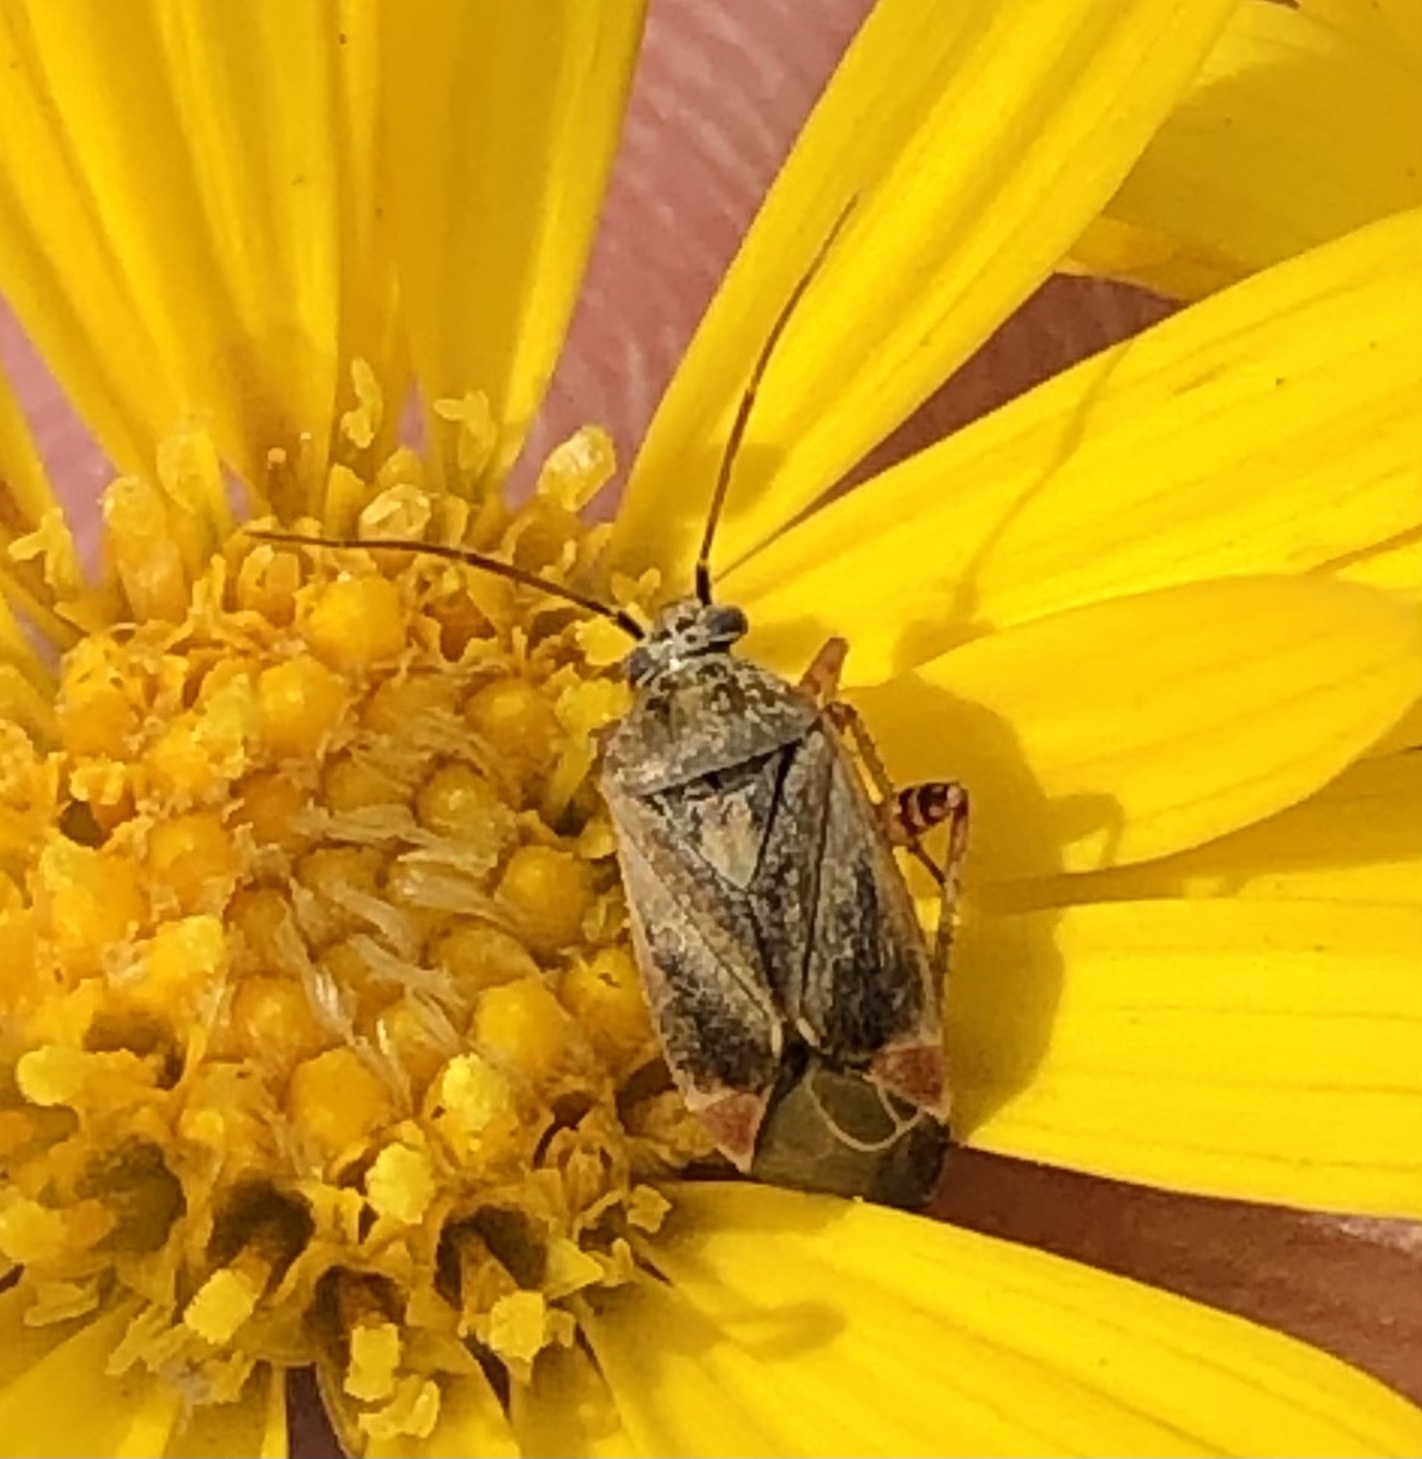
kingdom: Animalia
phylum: Arthropoda
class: Insecta
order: Hemiptera
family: Miridae
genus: Polymerus
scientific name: Polymerus basalis
